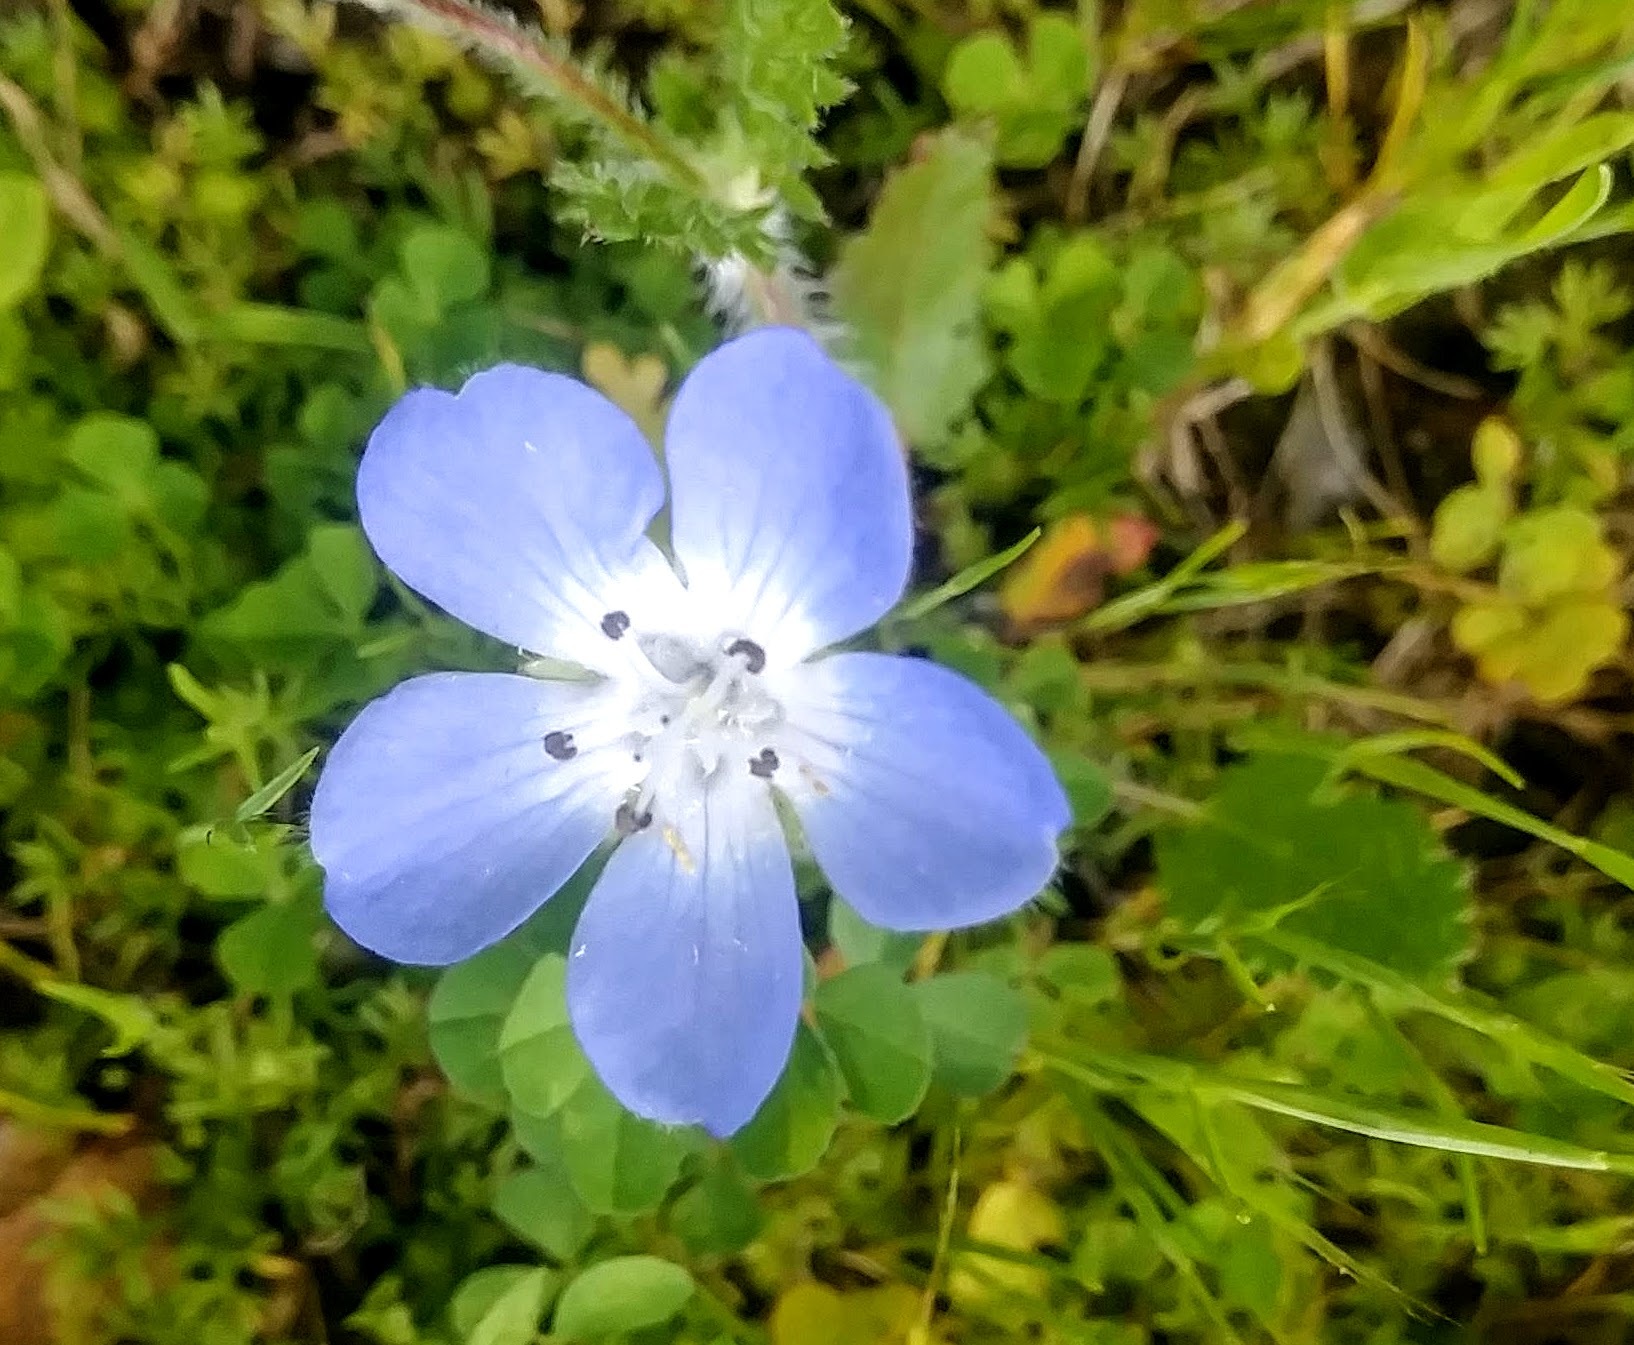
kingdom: Plantae
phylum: Tracheophyta
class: Magnoliopsida
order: Boraginales
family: Hydrophyllaceae
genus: Nemophila
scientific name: Nemophila menziesii
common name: Baby's-blue-eyes
